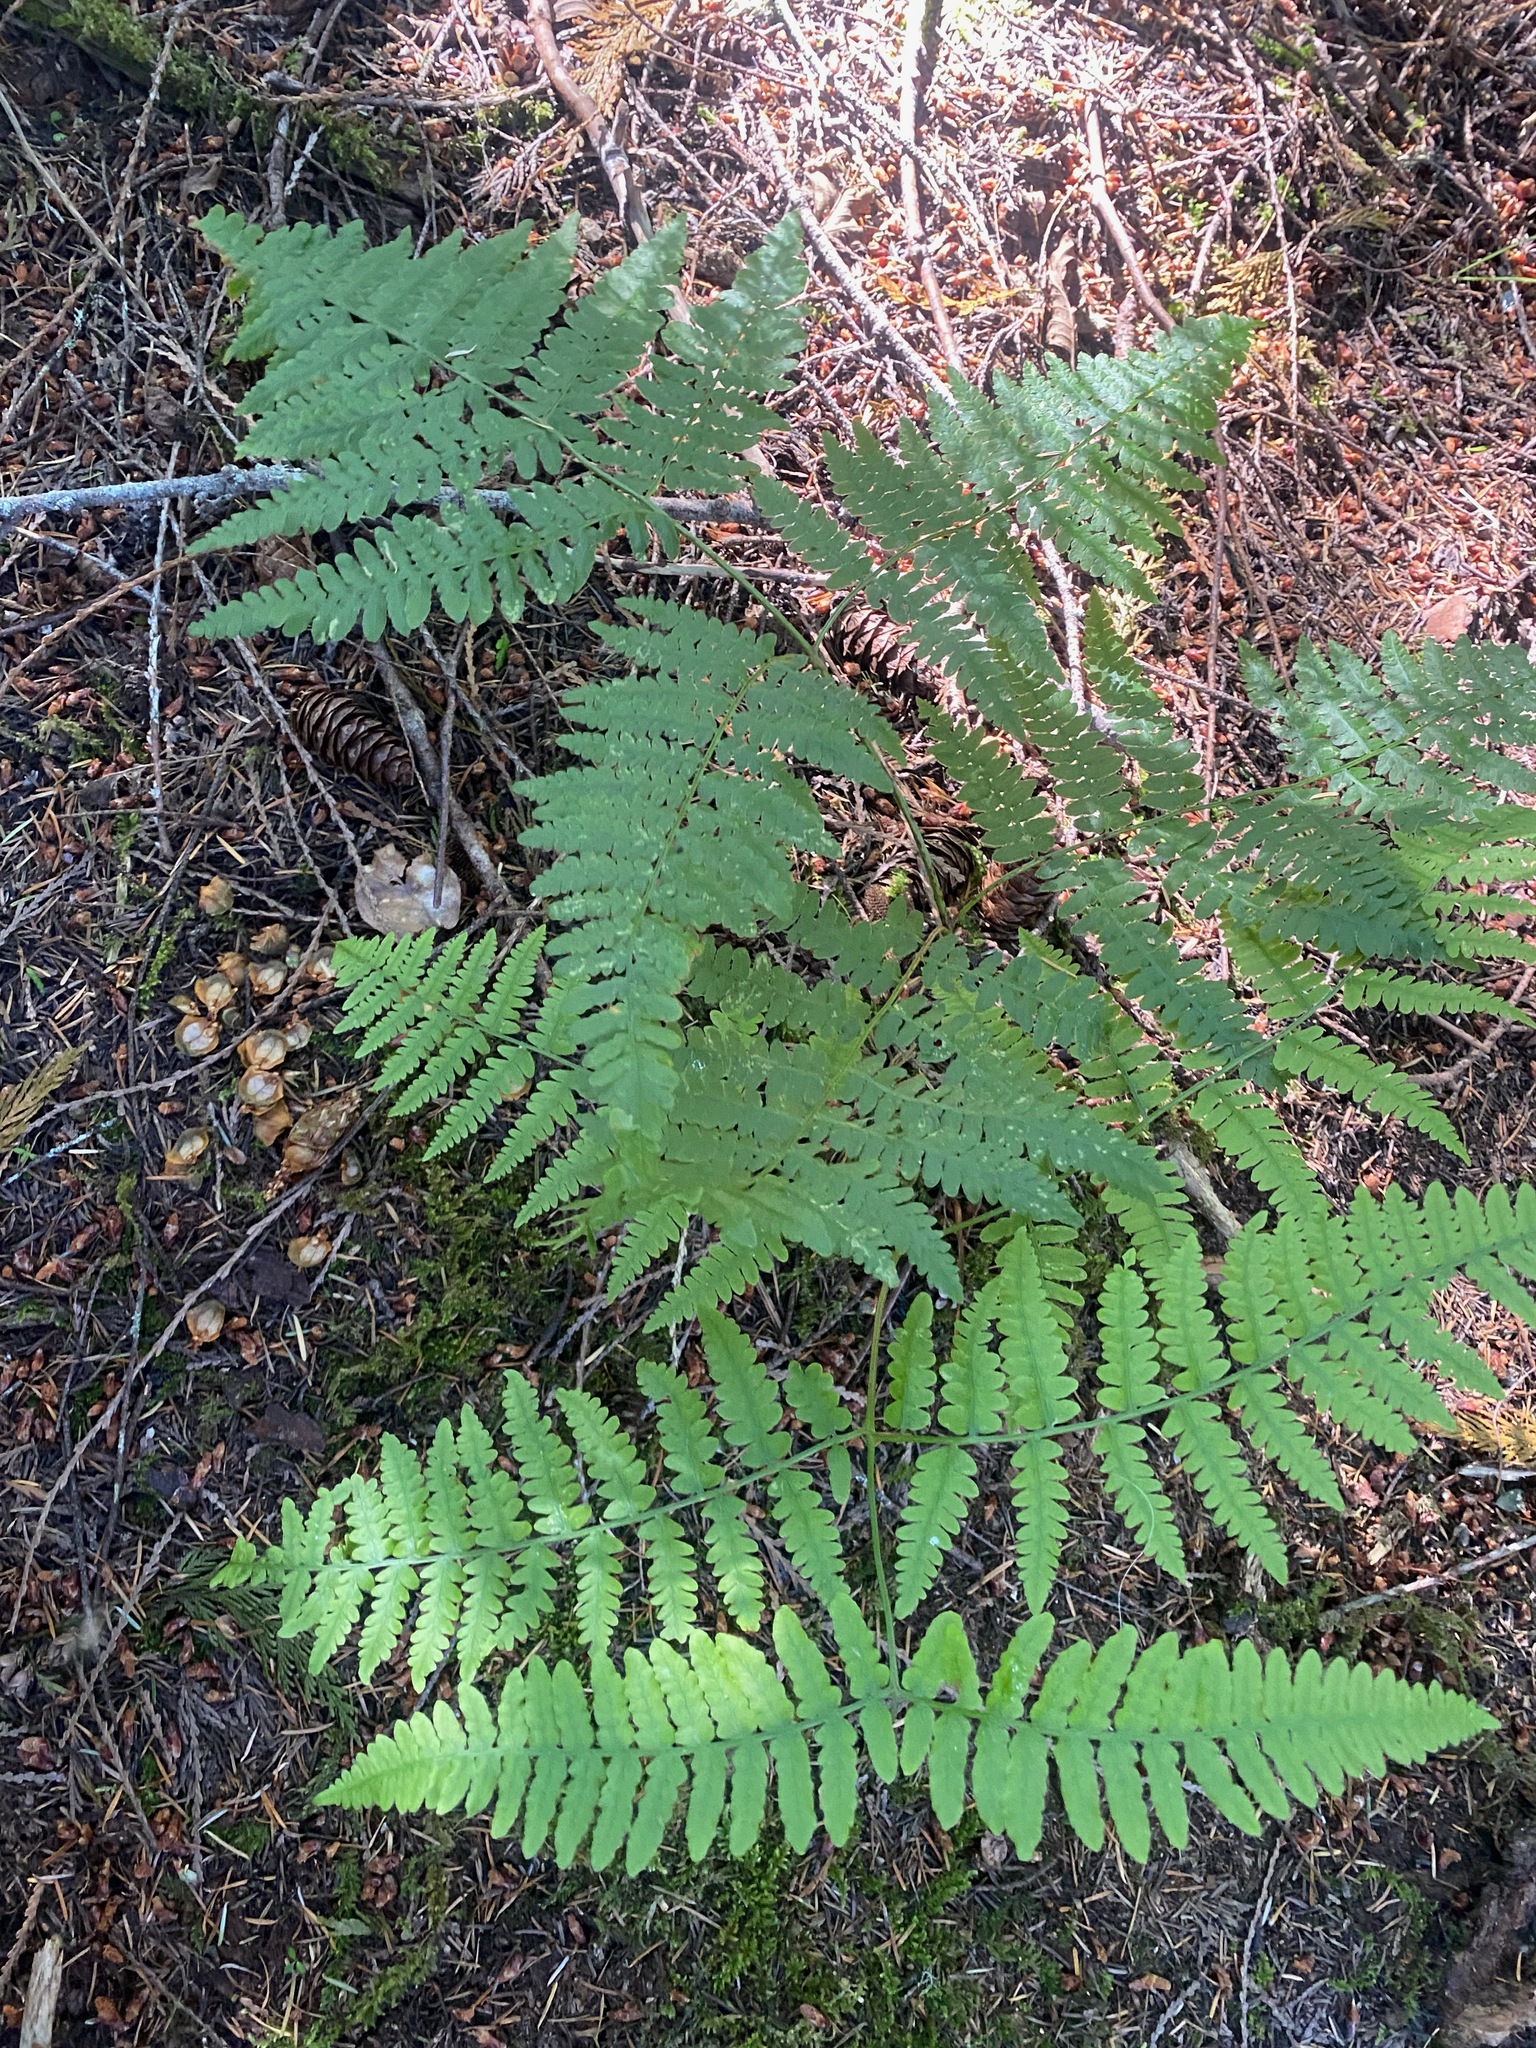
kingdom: Plantae
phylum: Tracheophyta
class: Polypodiopsida
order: Polypodiales
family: Dennstaedtiaceae
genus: Pteridium
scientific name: Pteridium aquilinum
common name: Bracken
